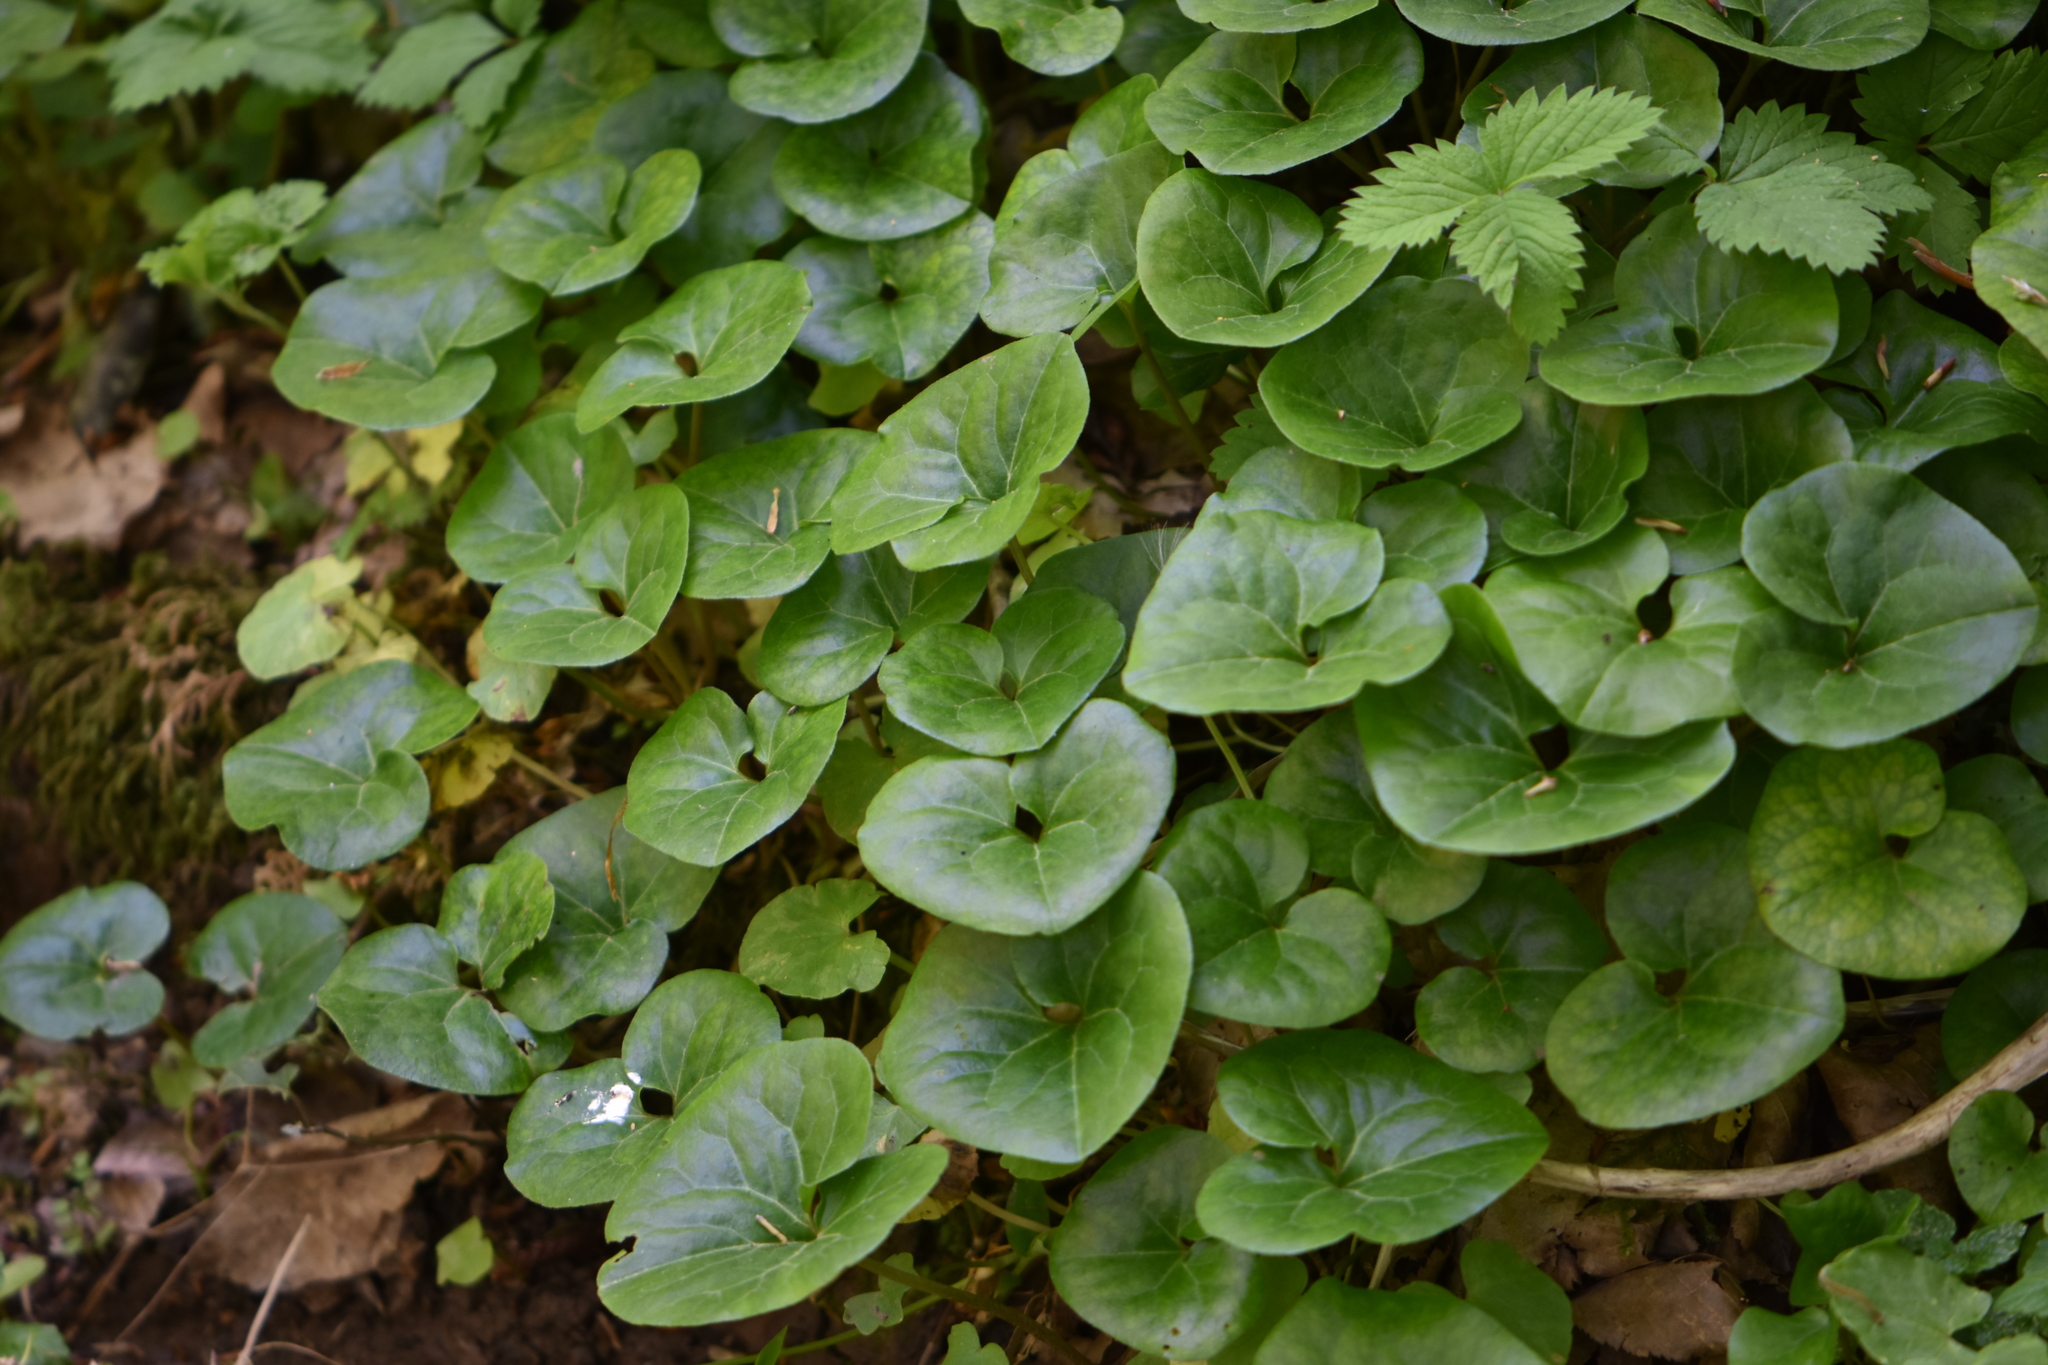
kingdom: Plantae
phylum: Tracheophyta
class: Magnoliopsida
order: Piperales
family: Aristolochiaceae
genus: Asarum
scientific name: Asarum europaeum
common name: Asarabacca
